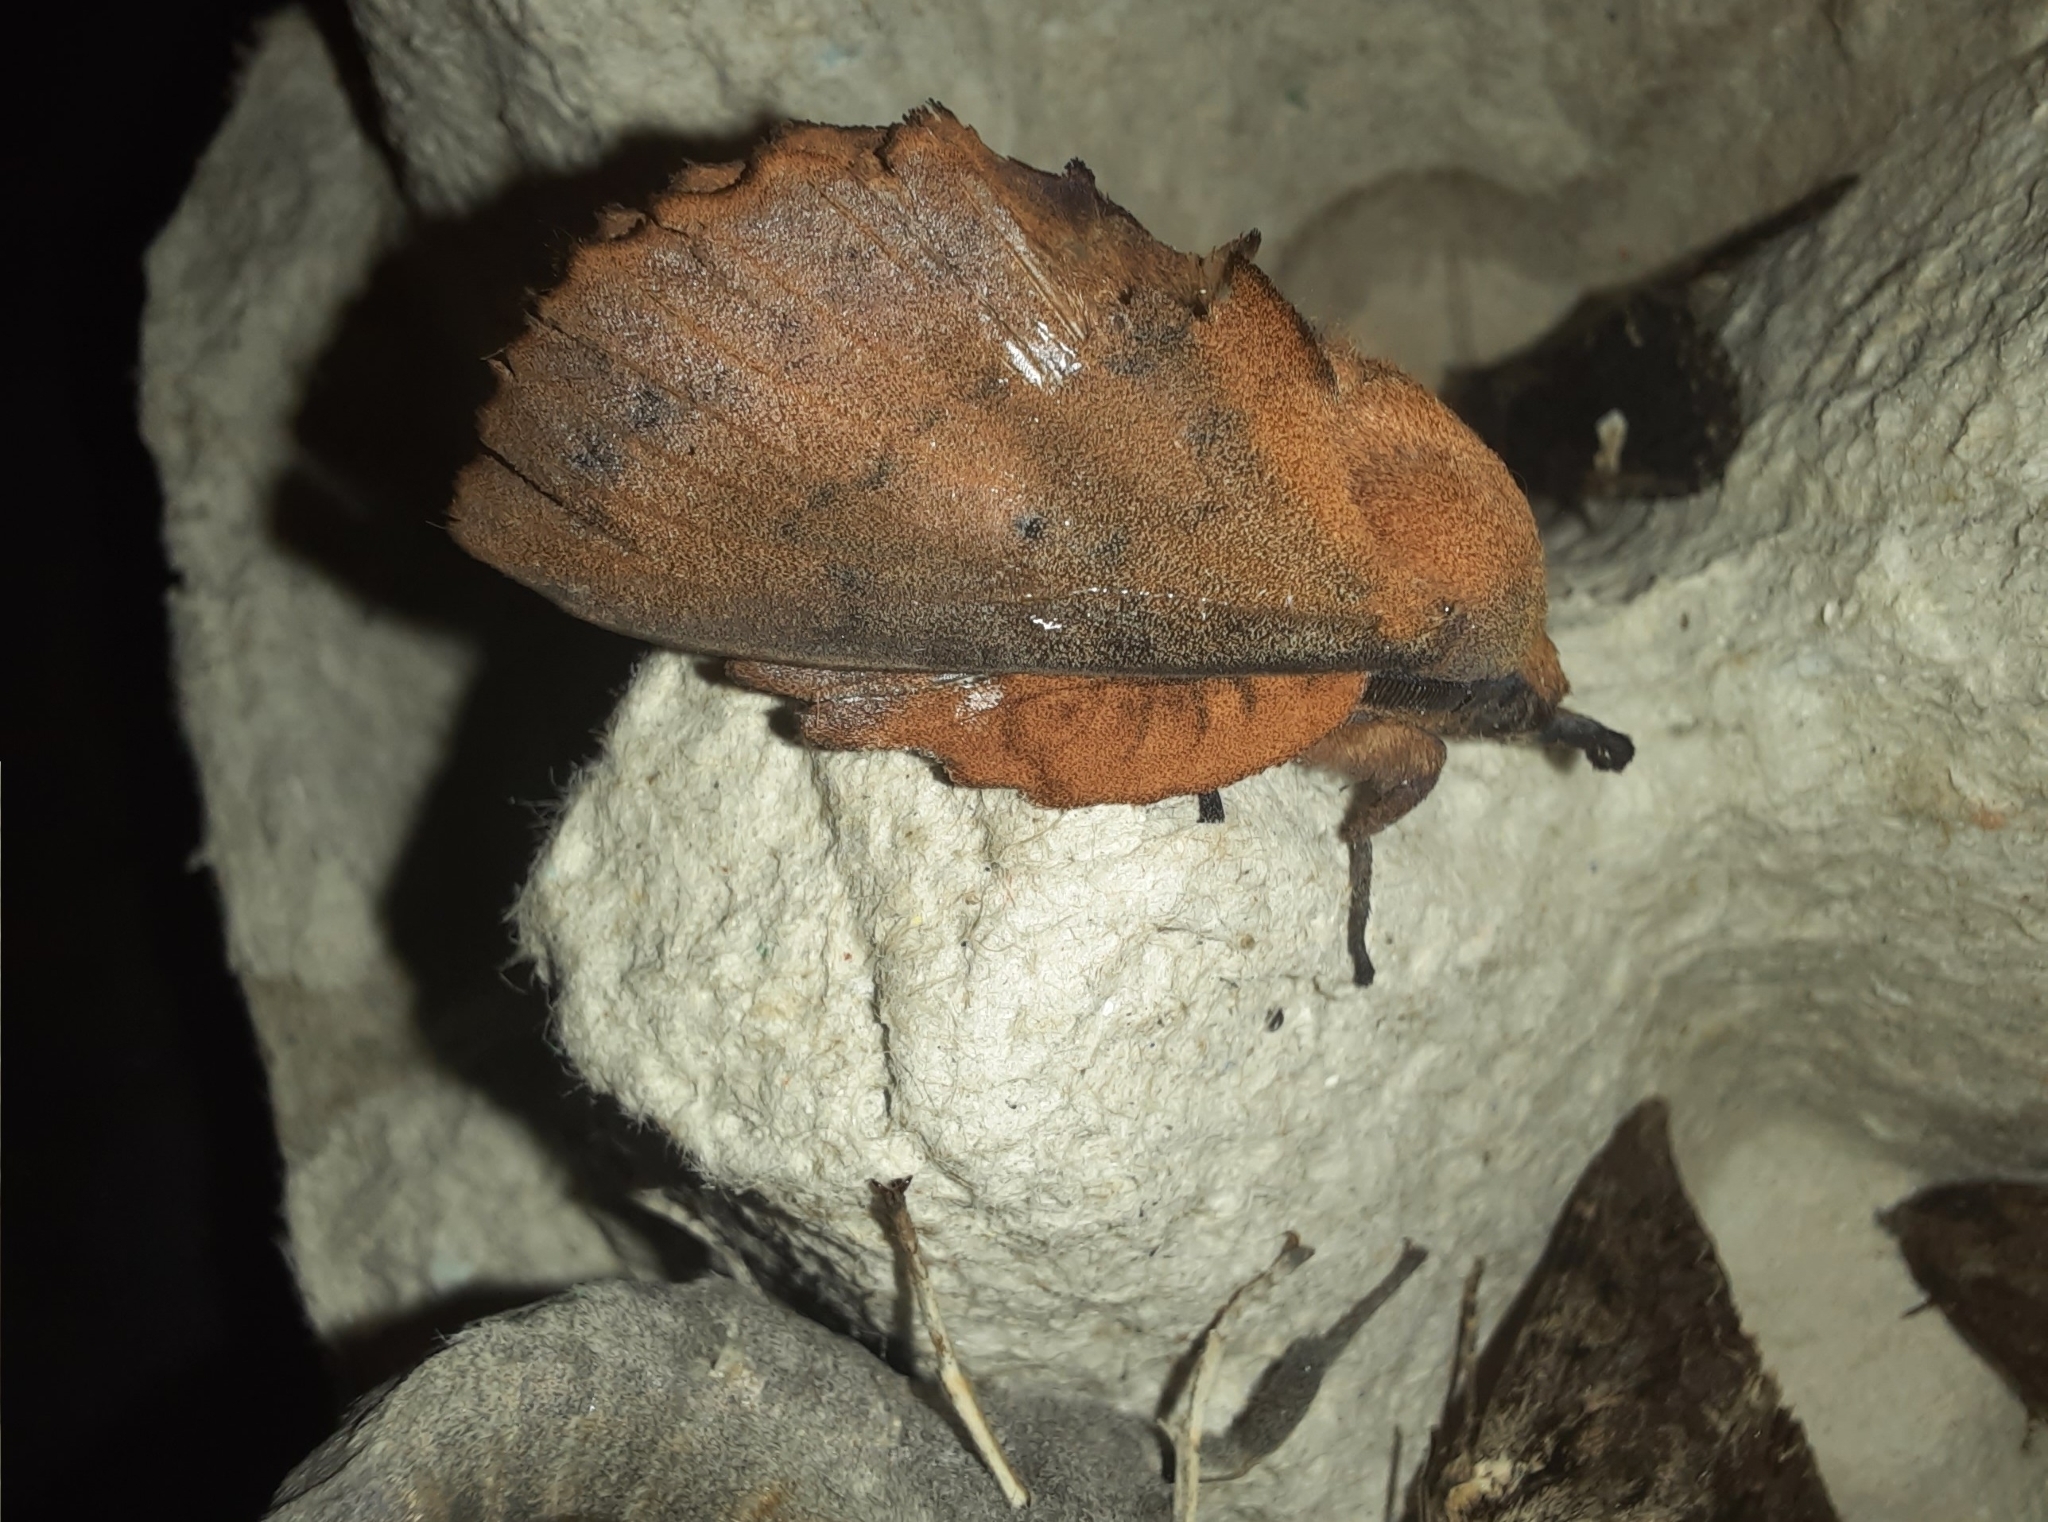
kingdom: Animalia
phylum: Arthropoda
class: Insecta
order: Lepidoptera
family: Lasiocampidae
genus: Gastropacha
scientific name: Gastropacha quercifolia
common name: Lappet
